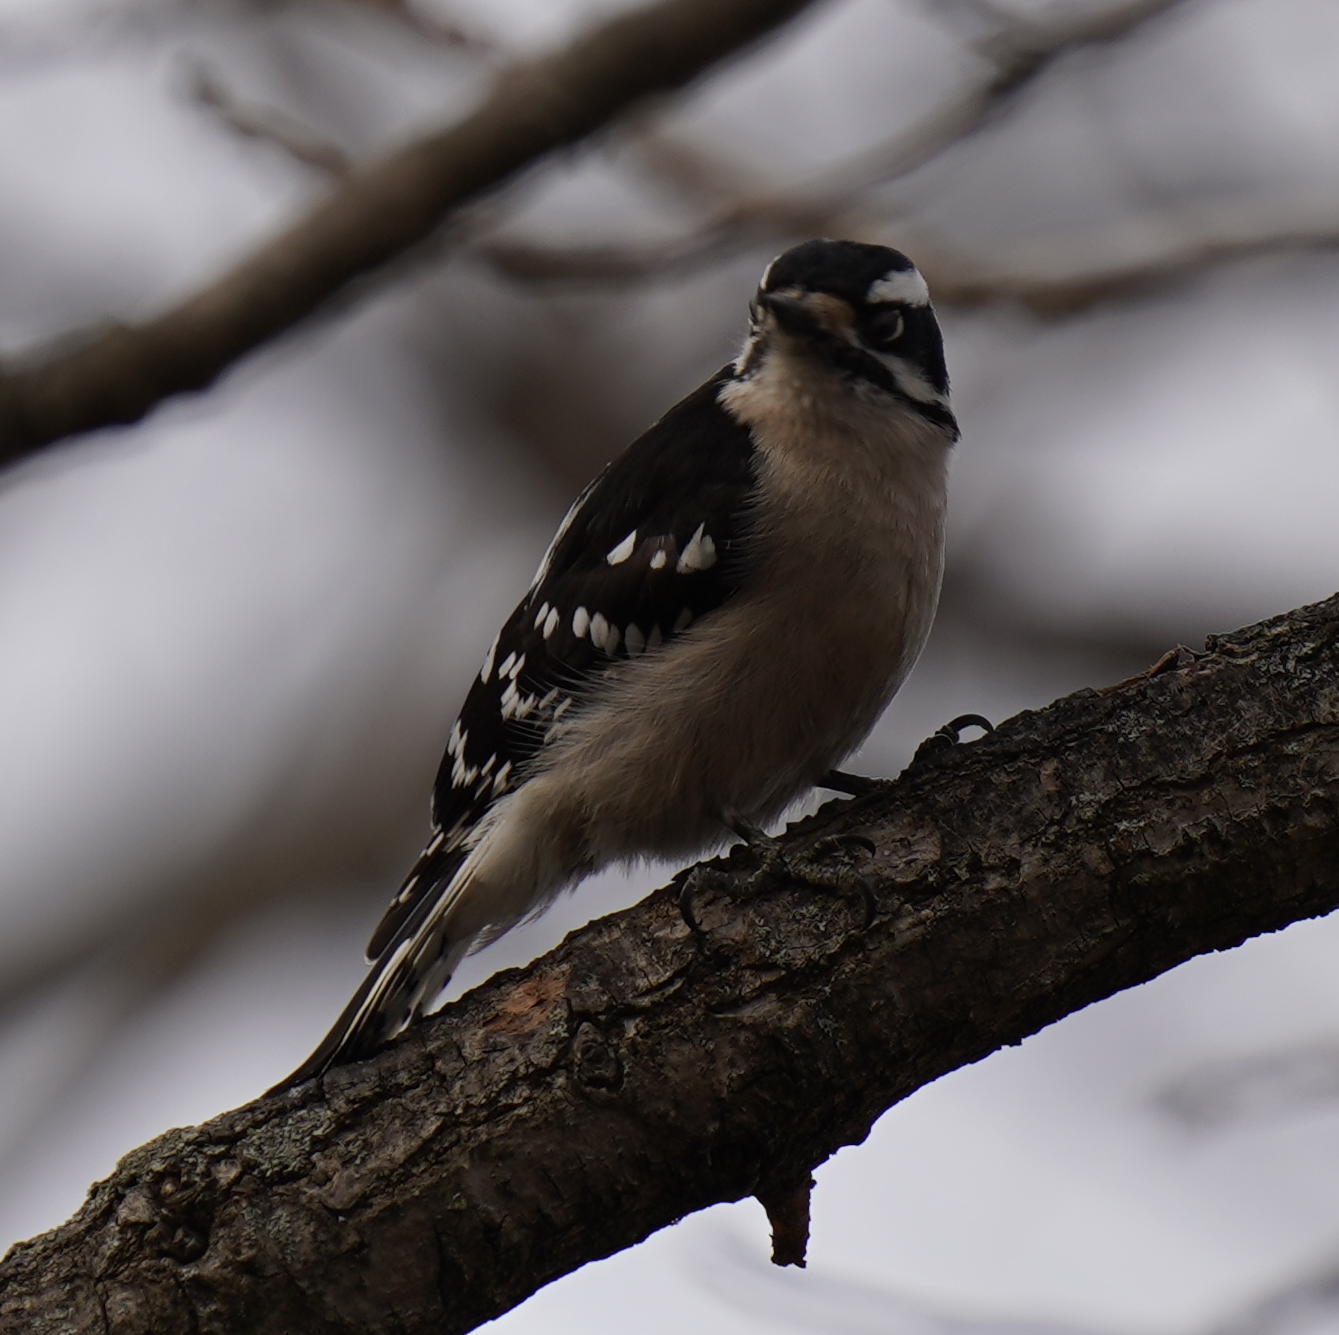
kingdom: Animalia
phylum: Chordata
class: Aves
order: Piciformes
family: Picidae
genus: Dryobates
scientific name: Dryobates pubescens
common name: Downy woodpecker
